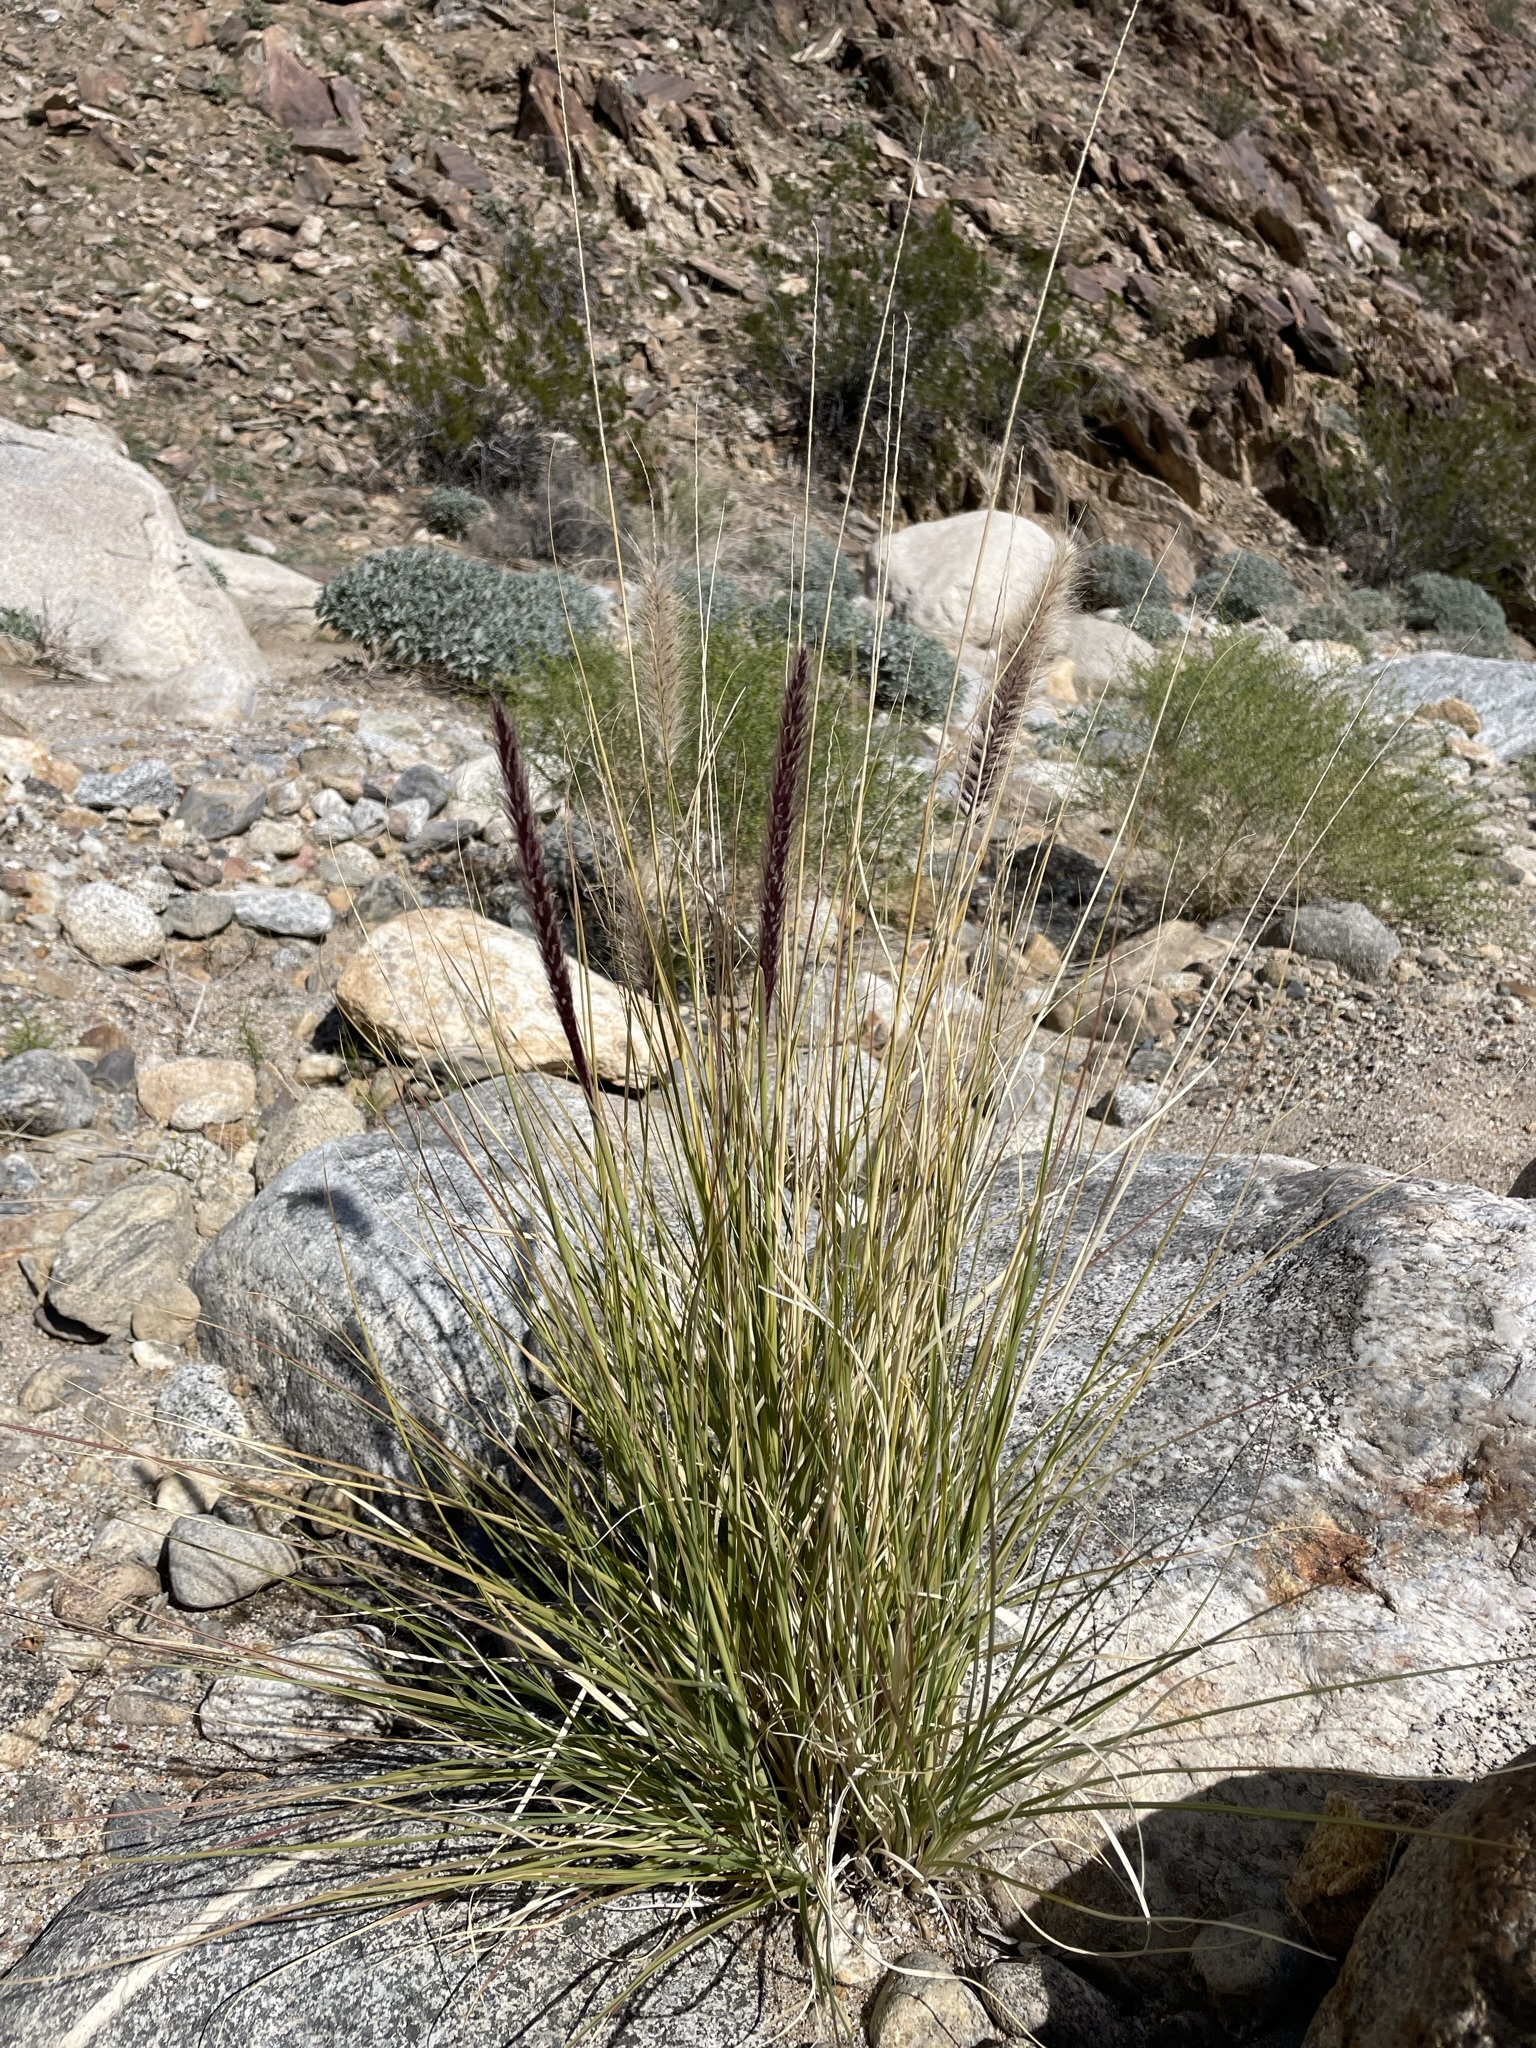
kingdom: Plantae
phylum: Tracheophyta
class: Liliopsida
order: Poales
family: Poaceae
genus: Cenchrus
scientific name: Cenchrus setaceus
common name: Crimson fountaingrass
